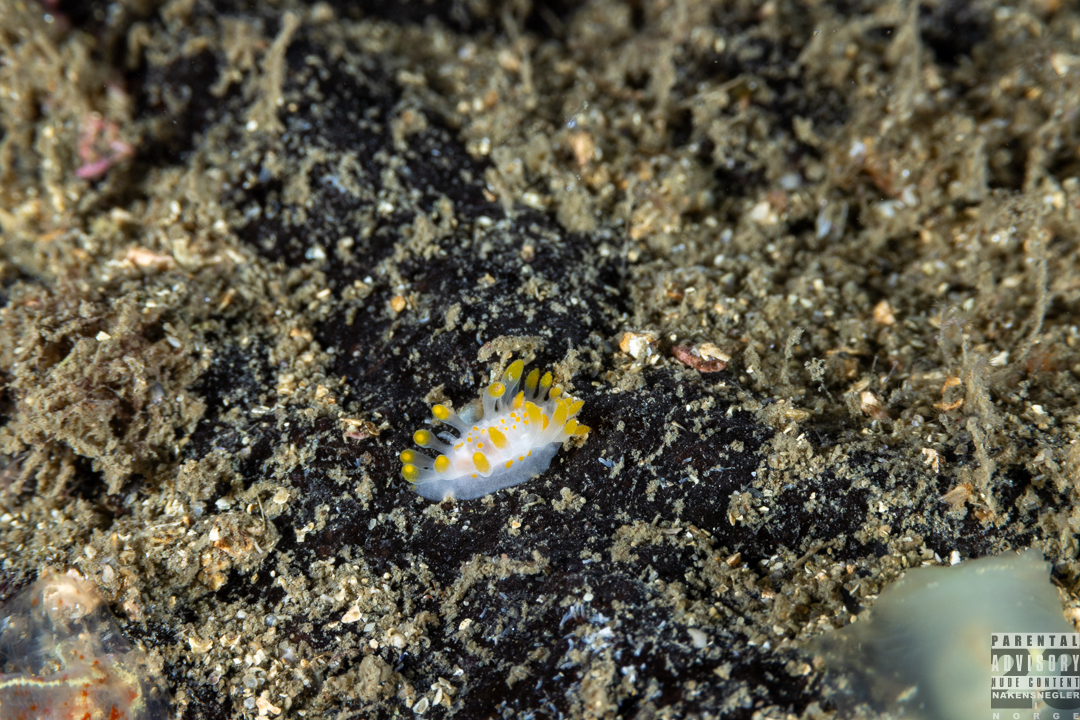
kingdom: Animalia
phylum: Mollusca
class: Gastropoda
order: Nudibranchia
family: Polyceridae
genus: Limacia
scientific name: Limacia clavigera
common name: Orange-clubbed sea slug
